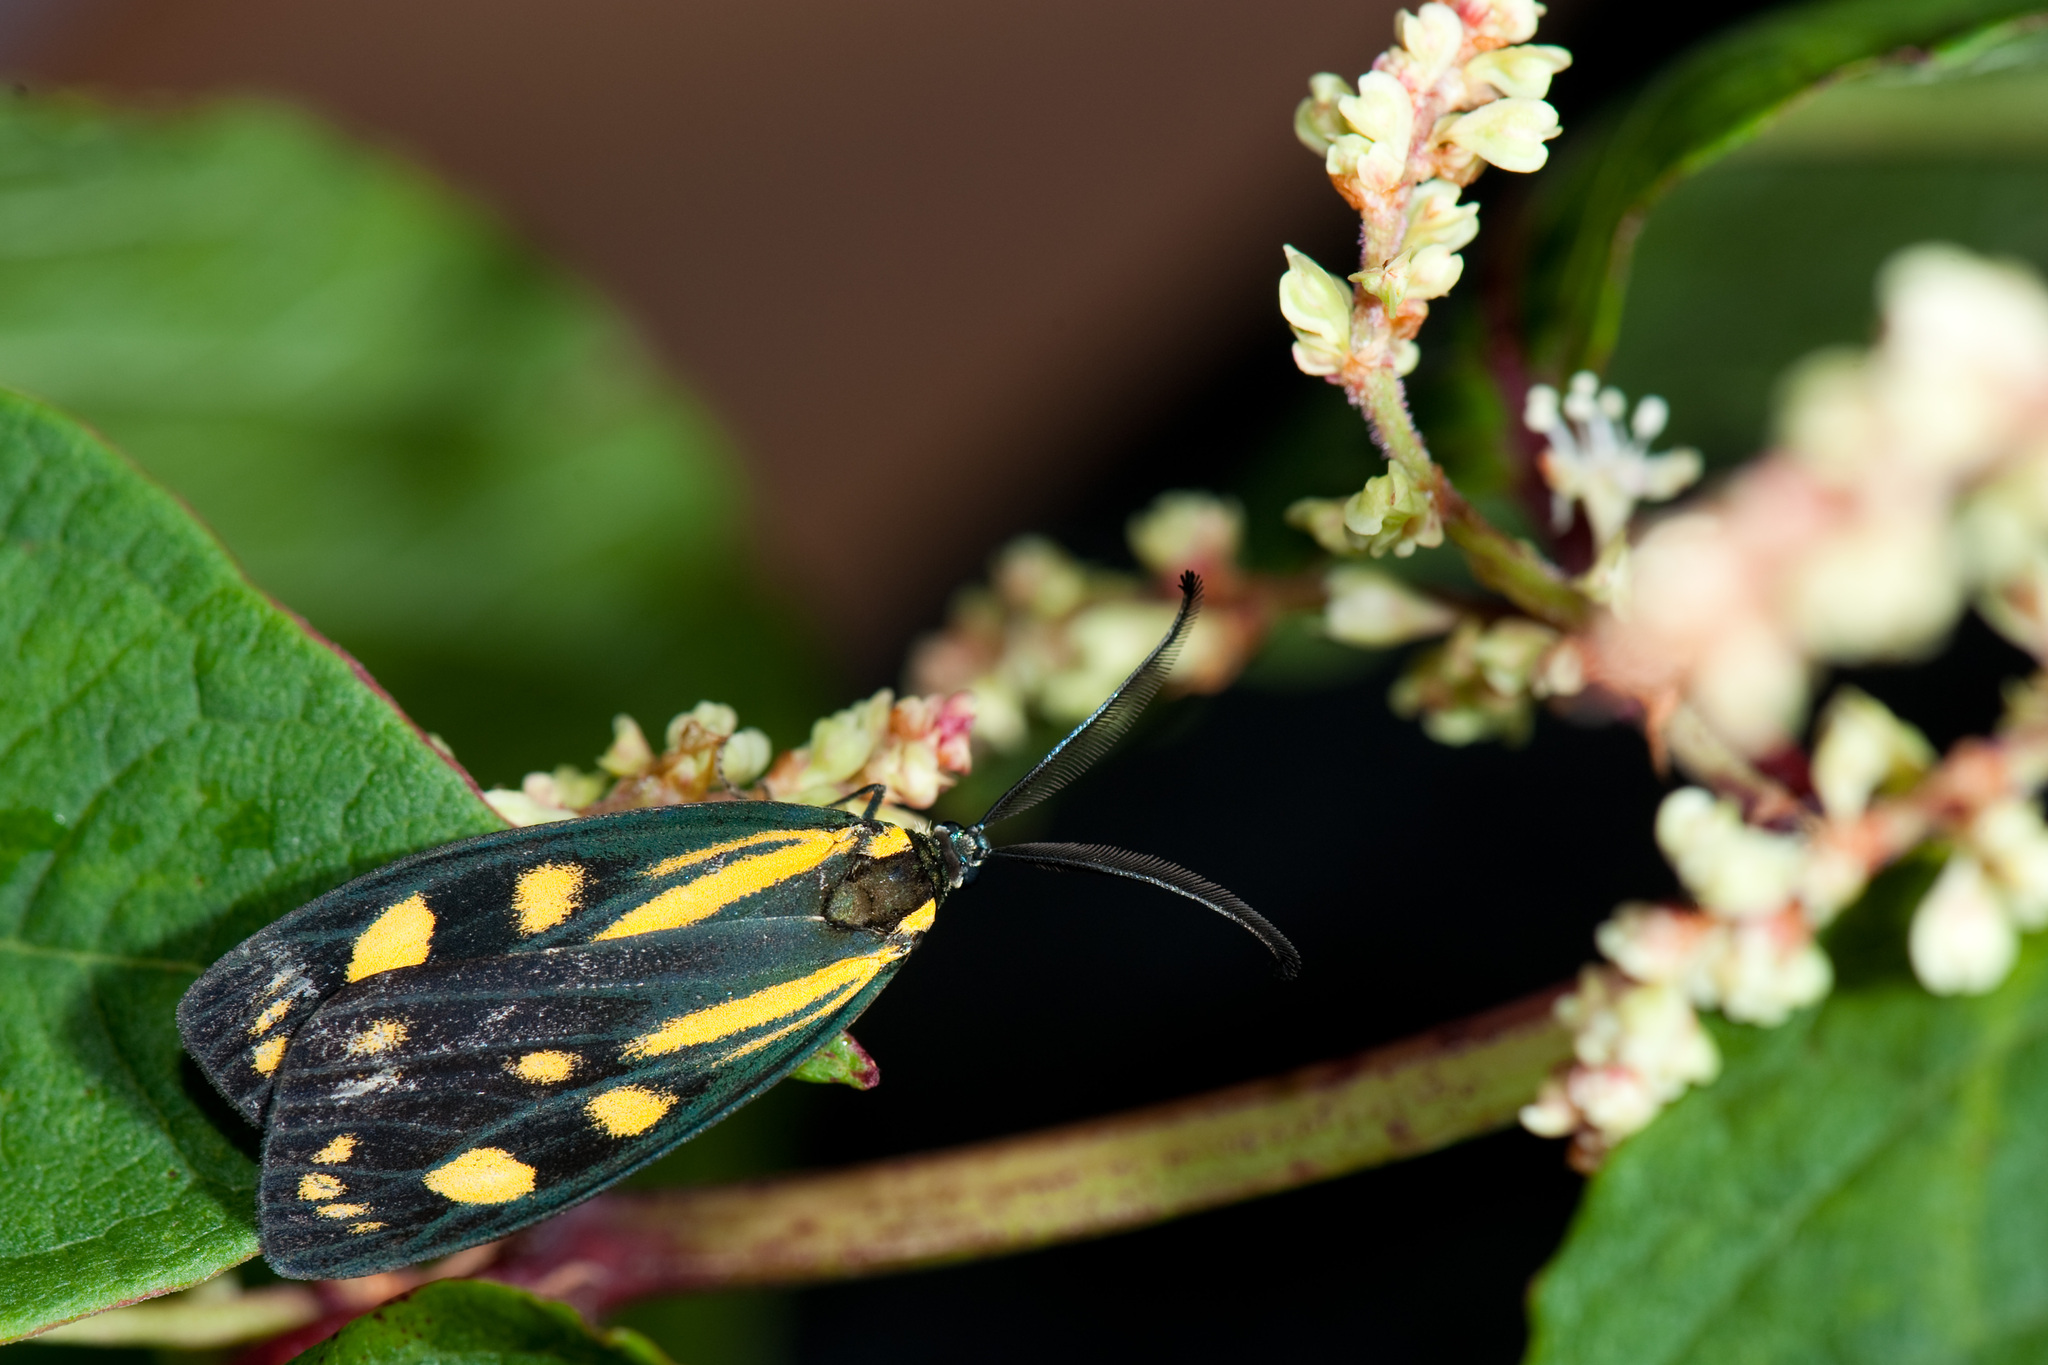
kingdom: Animalia
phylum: Arthropoda
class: Insecta
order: Lepidoptera
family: Zygaenidae
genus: Soritia
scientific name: Soritia azurea
